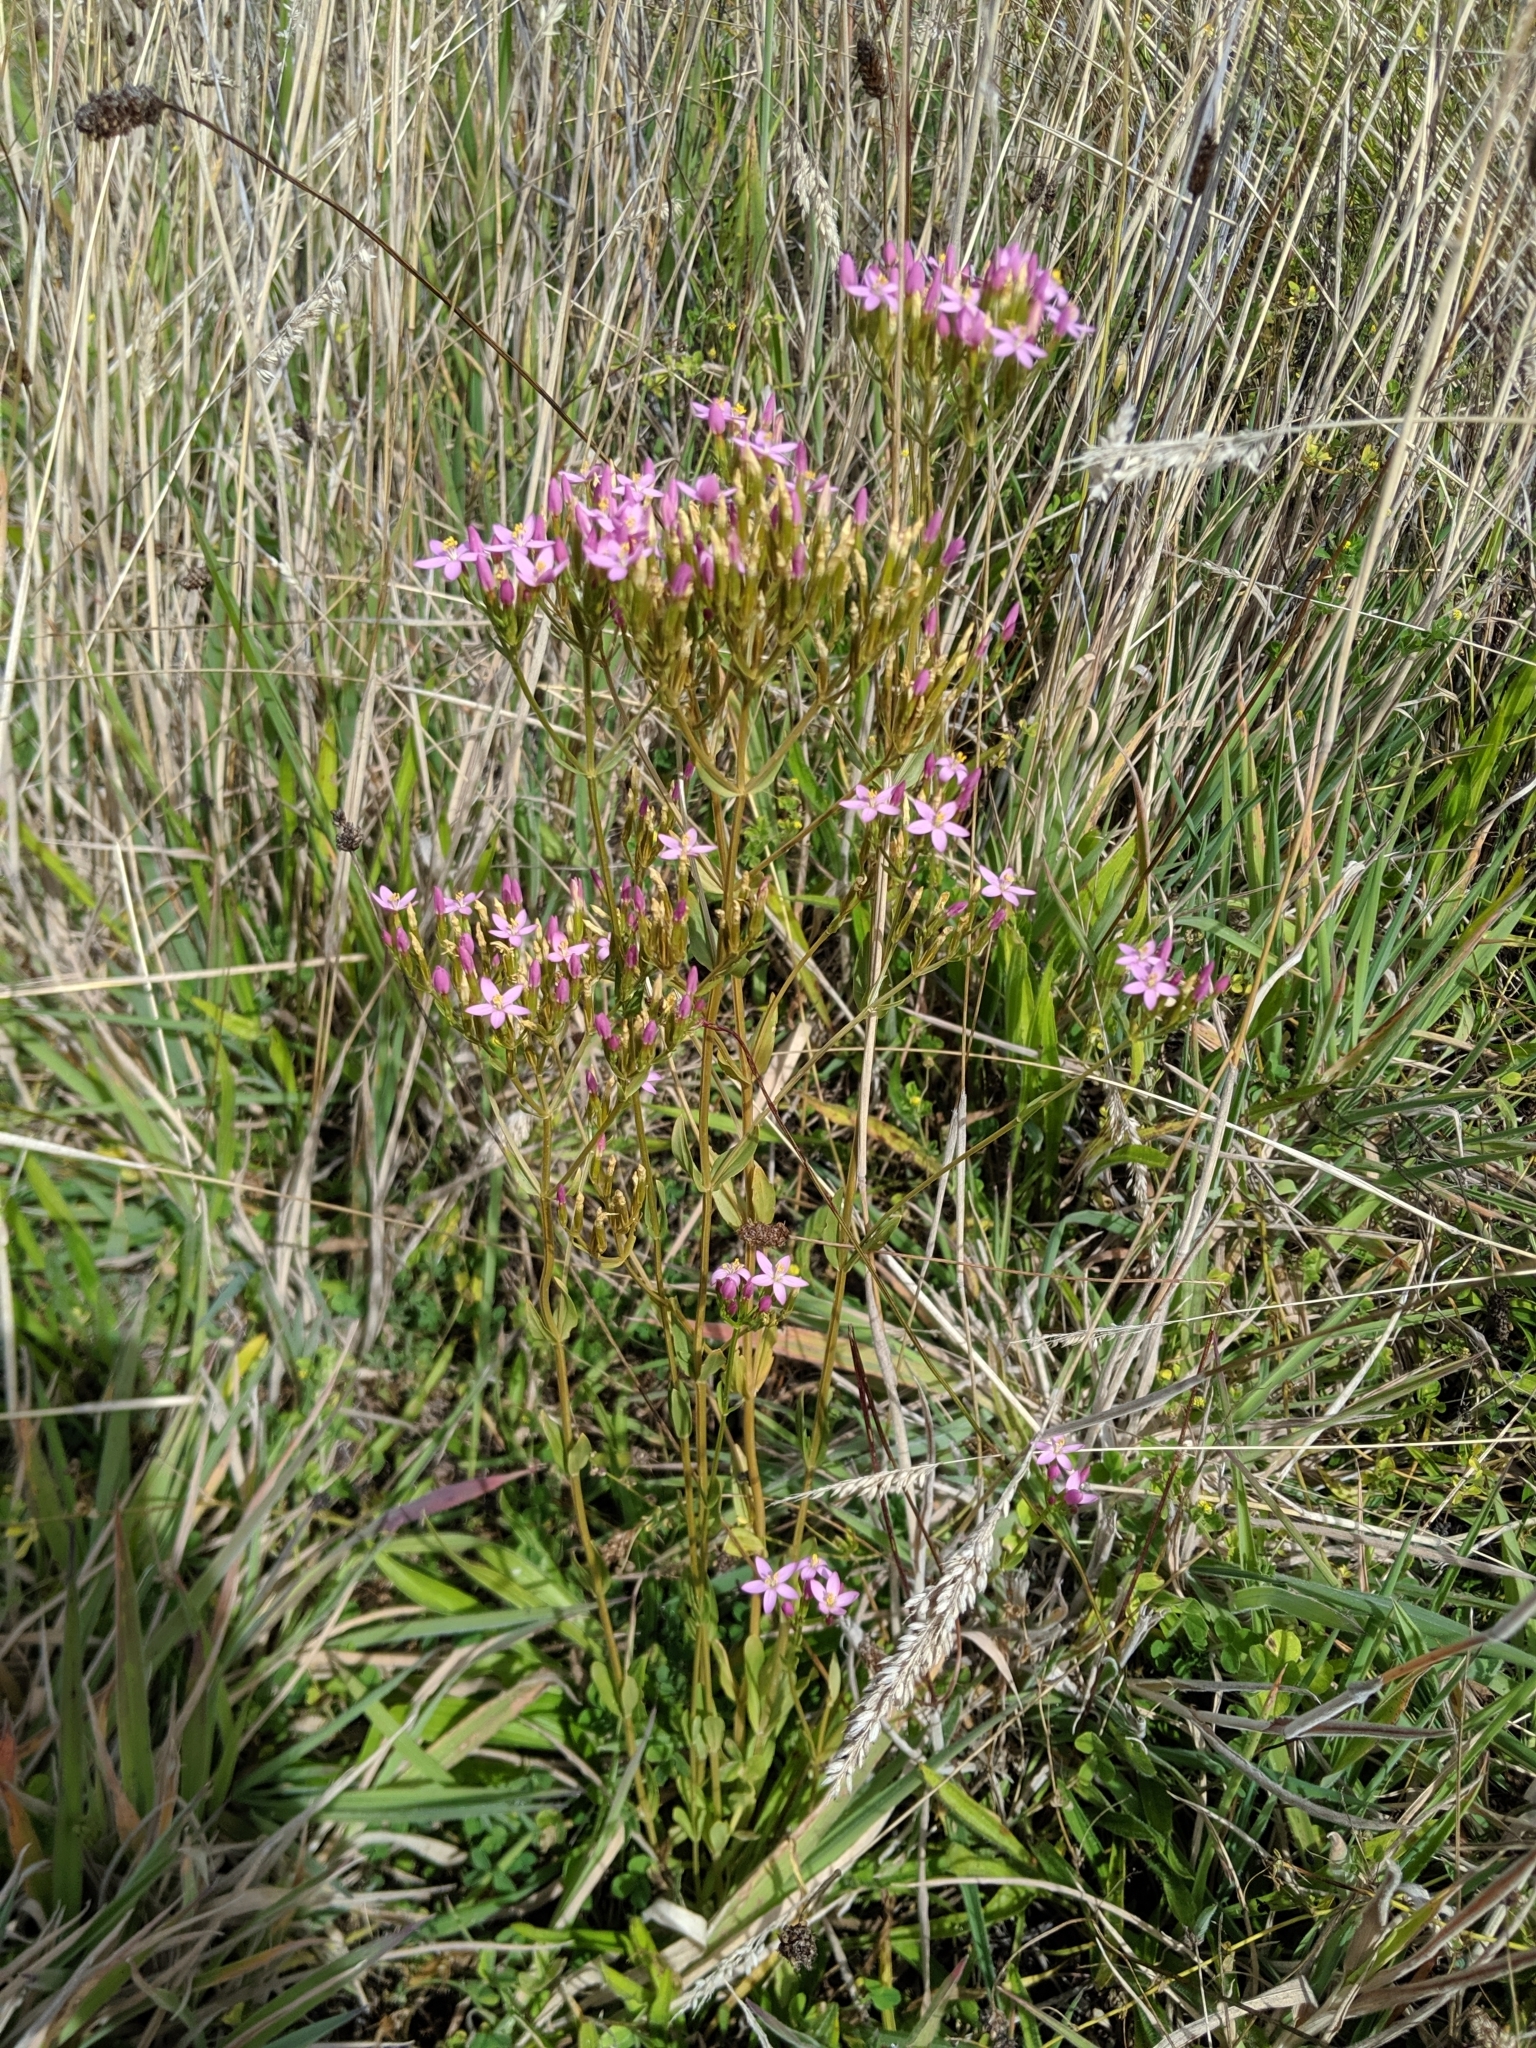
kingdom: Plantae
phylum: Tracheophyta
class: Magnoliopsida
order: Gentianales
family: Gentianaceae
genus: Centaurium
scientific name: Centaurium erythraea
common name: Common centaury
